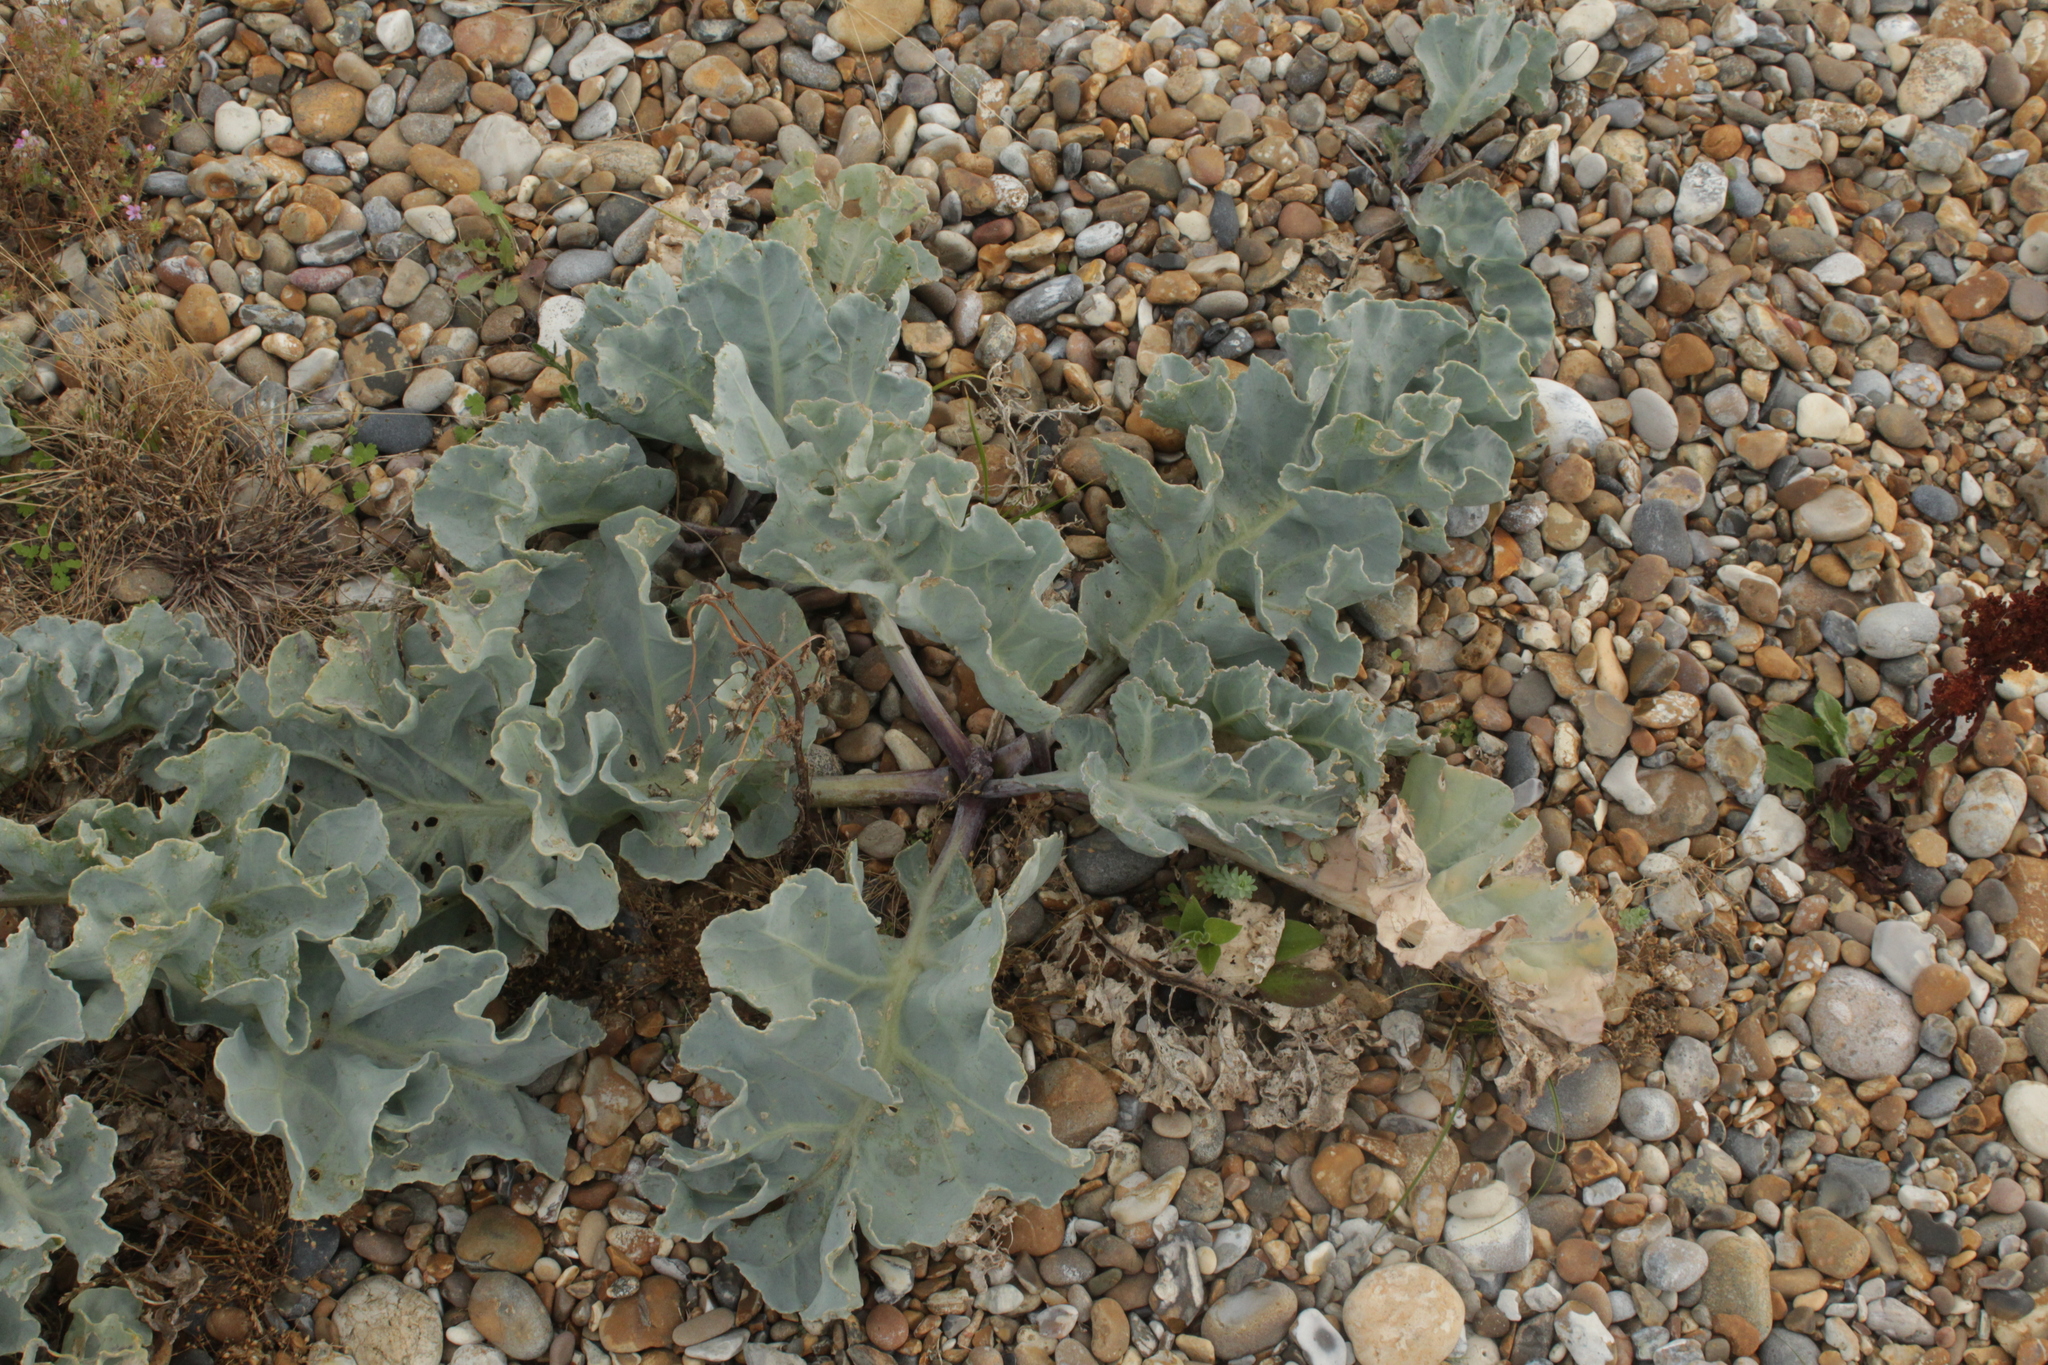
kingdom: Plantae
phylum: Tracheophyta
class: Magnoliopsida
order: Brassicales
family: Brassicaceae
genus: Crambe
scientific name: Crambe maritima
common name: Sea-kale
